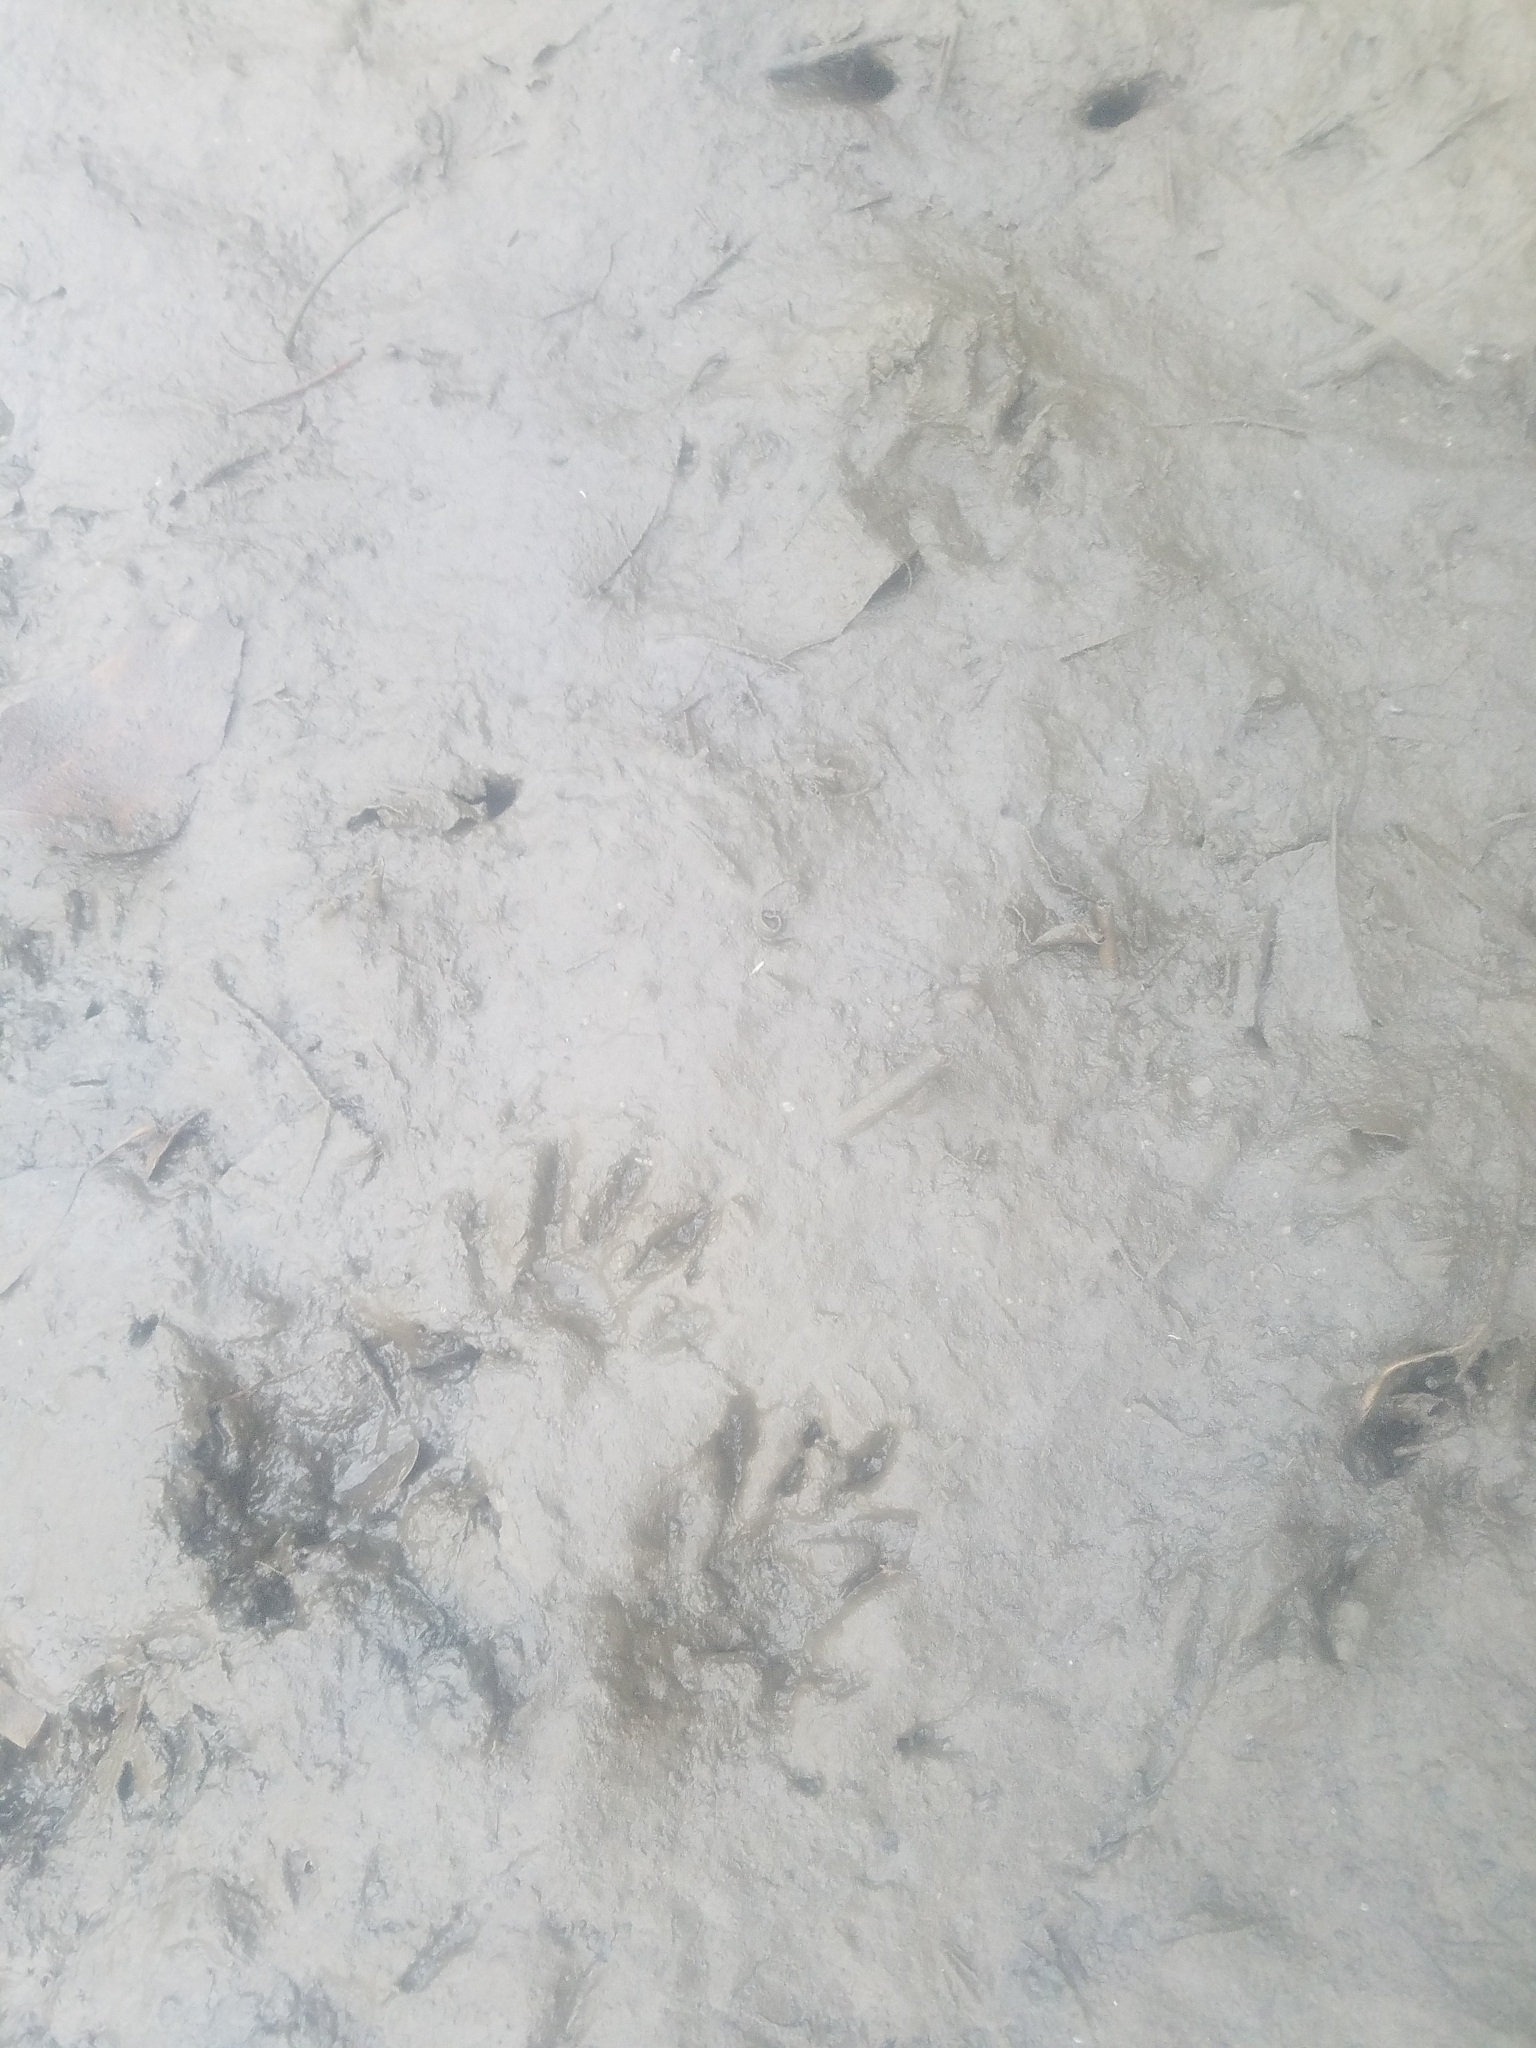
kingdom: Animalia
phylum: Chordata
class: Mammalia
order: Carnivora
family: Procyonidae
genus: Procyon
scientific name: Procyon lotor
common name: Raccoon
